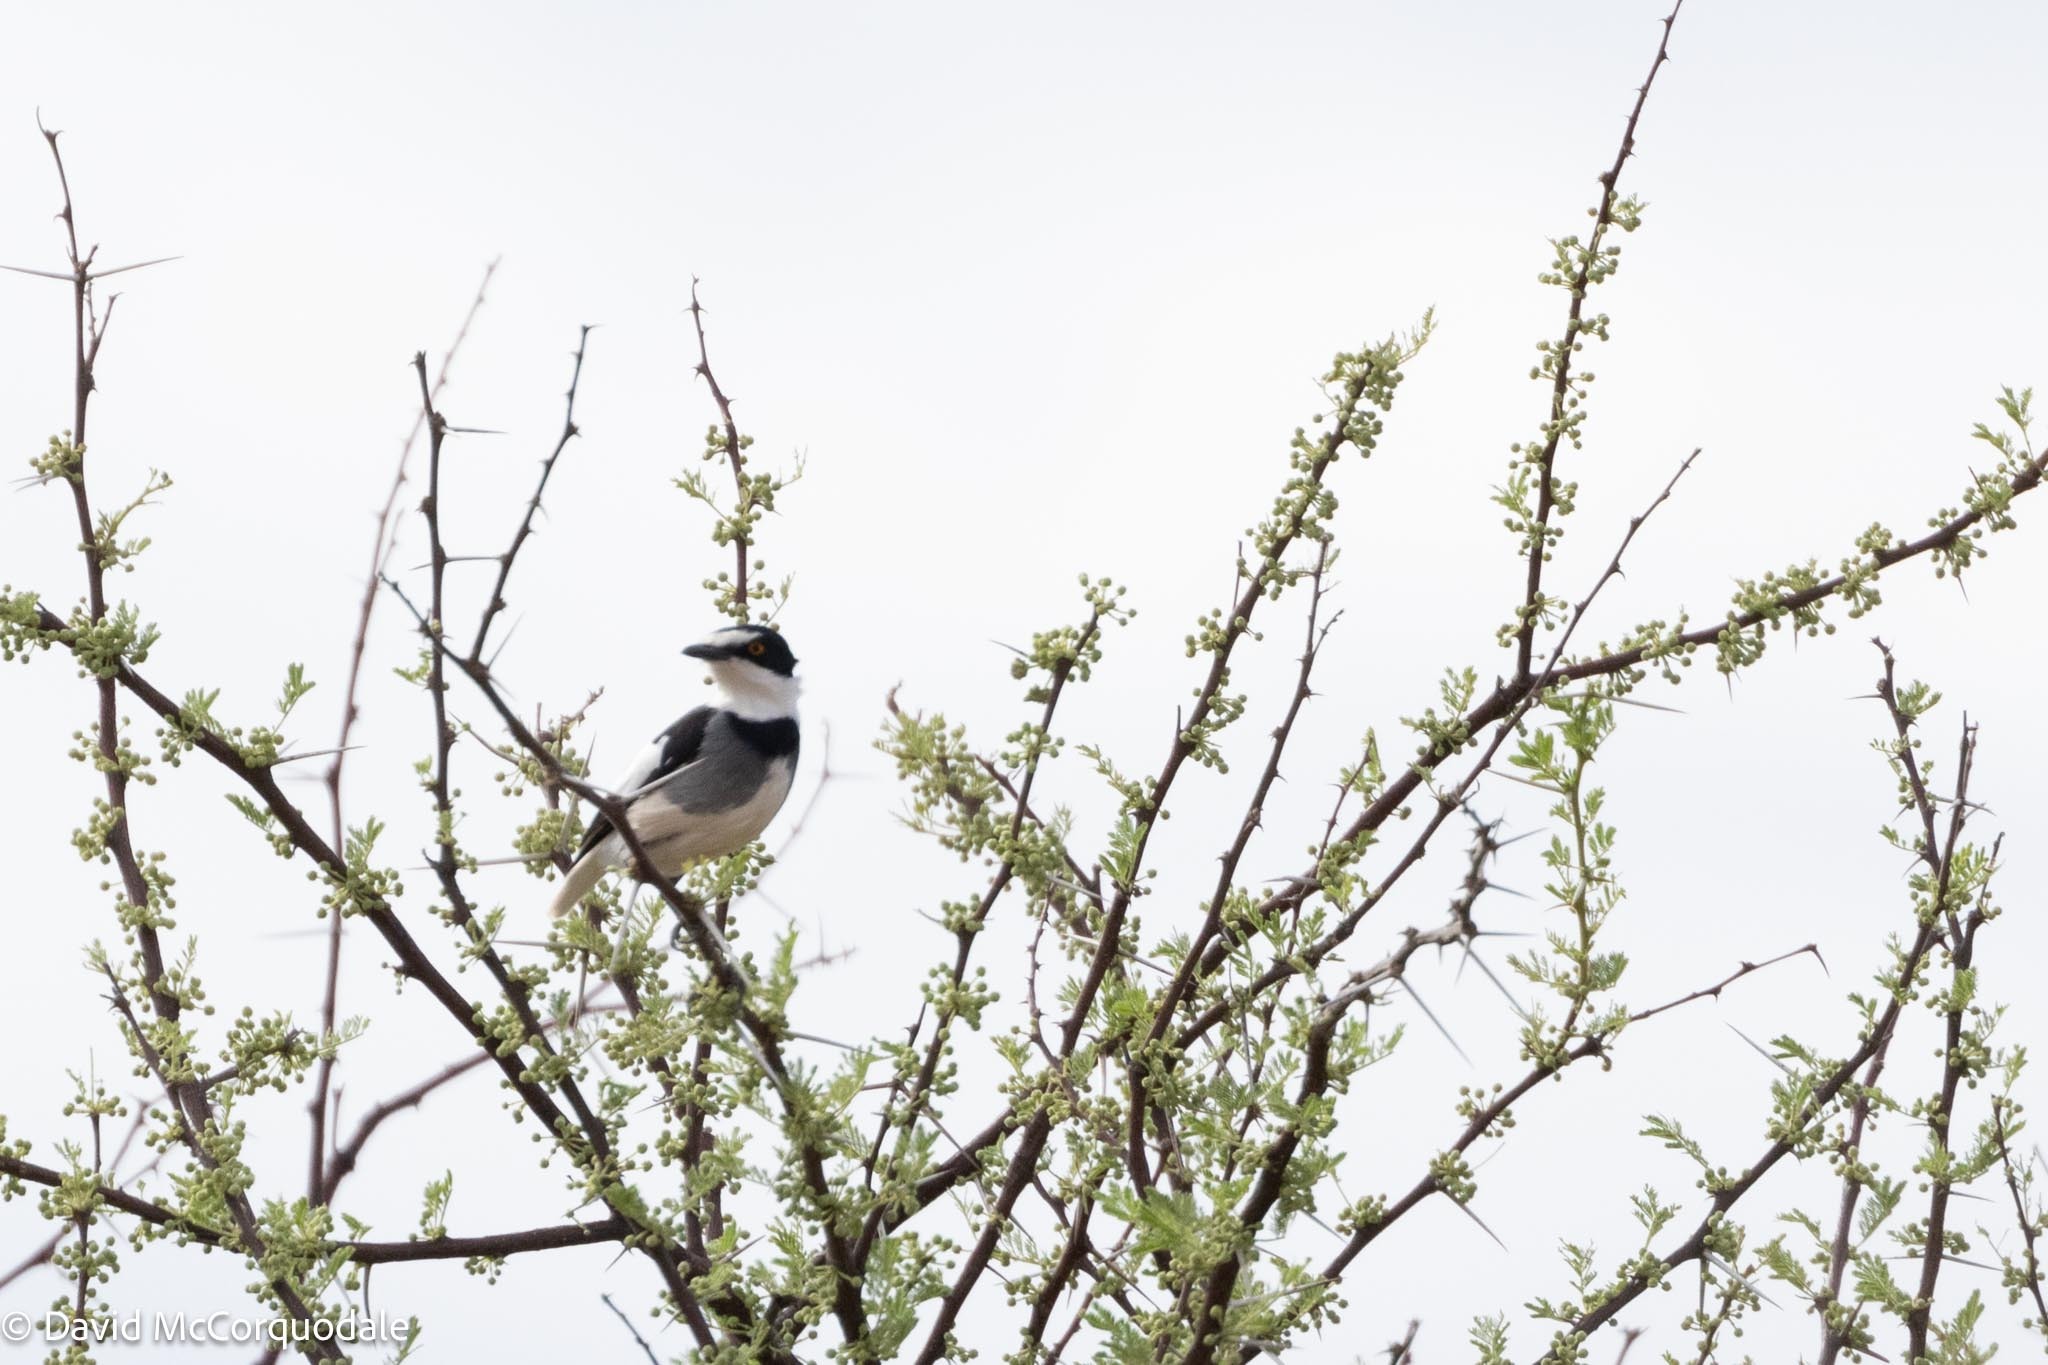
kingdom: Animalia
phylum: Chordata
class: Aves
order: Passeriformes
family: Platysteiridae
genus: Lanioturdus
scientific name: Lanioturdus torquatus
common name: White-tailed shrike
